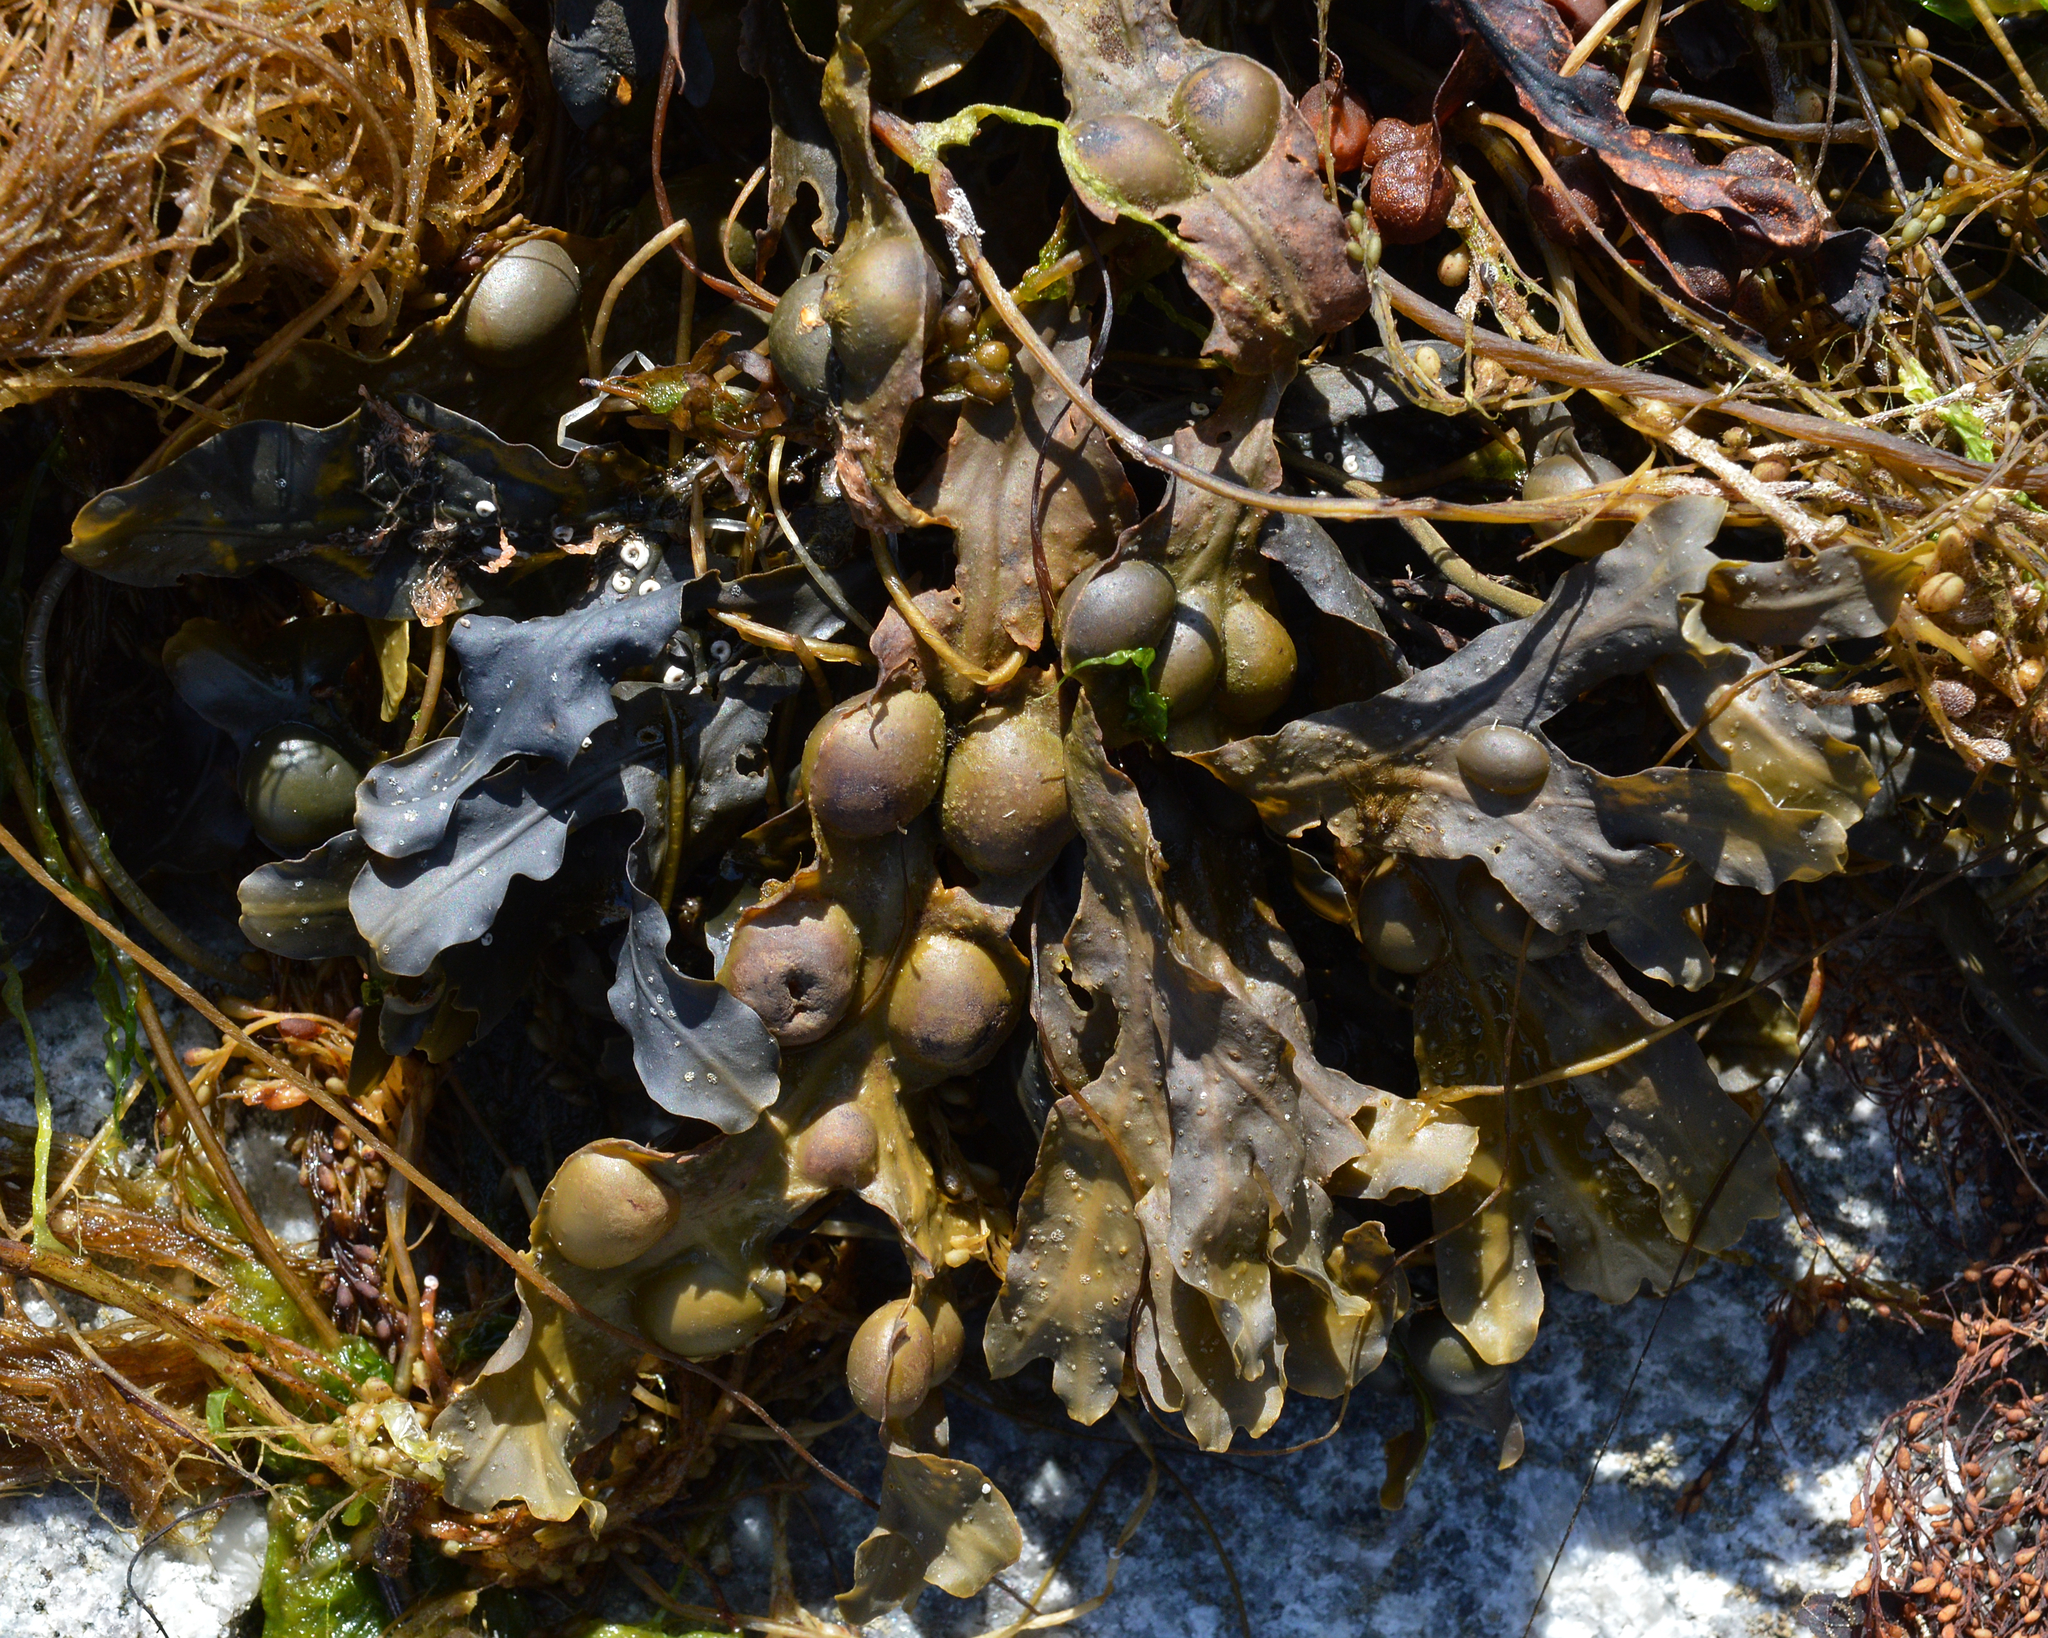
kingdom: Chromista
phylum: Ochrophyta
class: Phaeophyceae
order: Fucales
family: Fucaceae
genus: Fucus
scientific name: Fucus vesiculosus
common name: Bladder wrack
